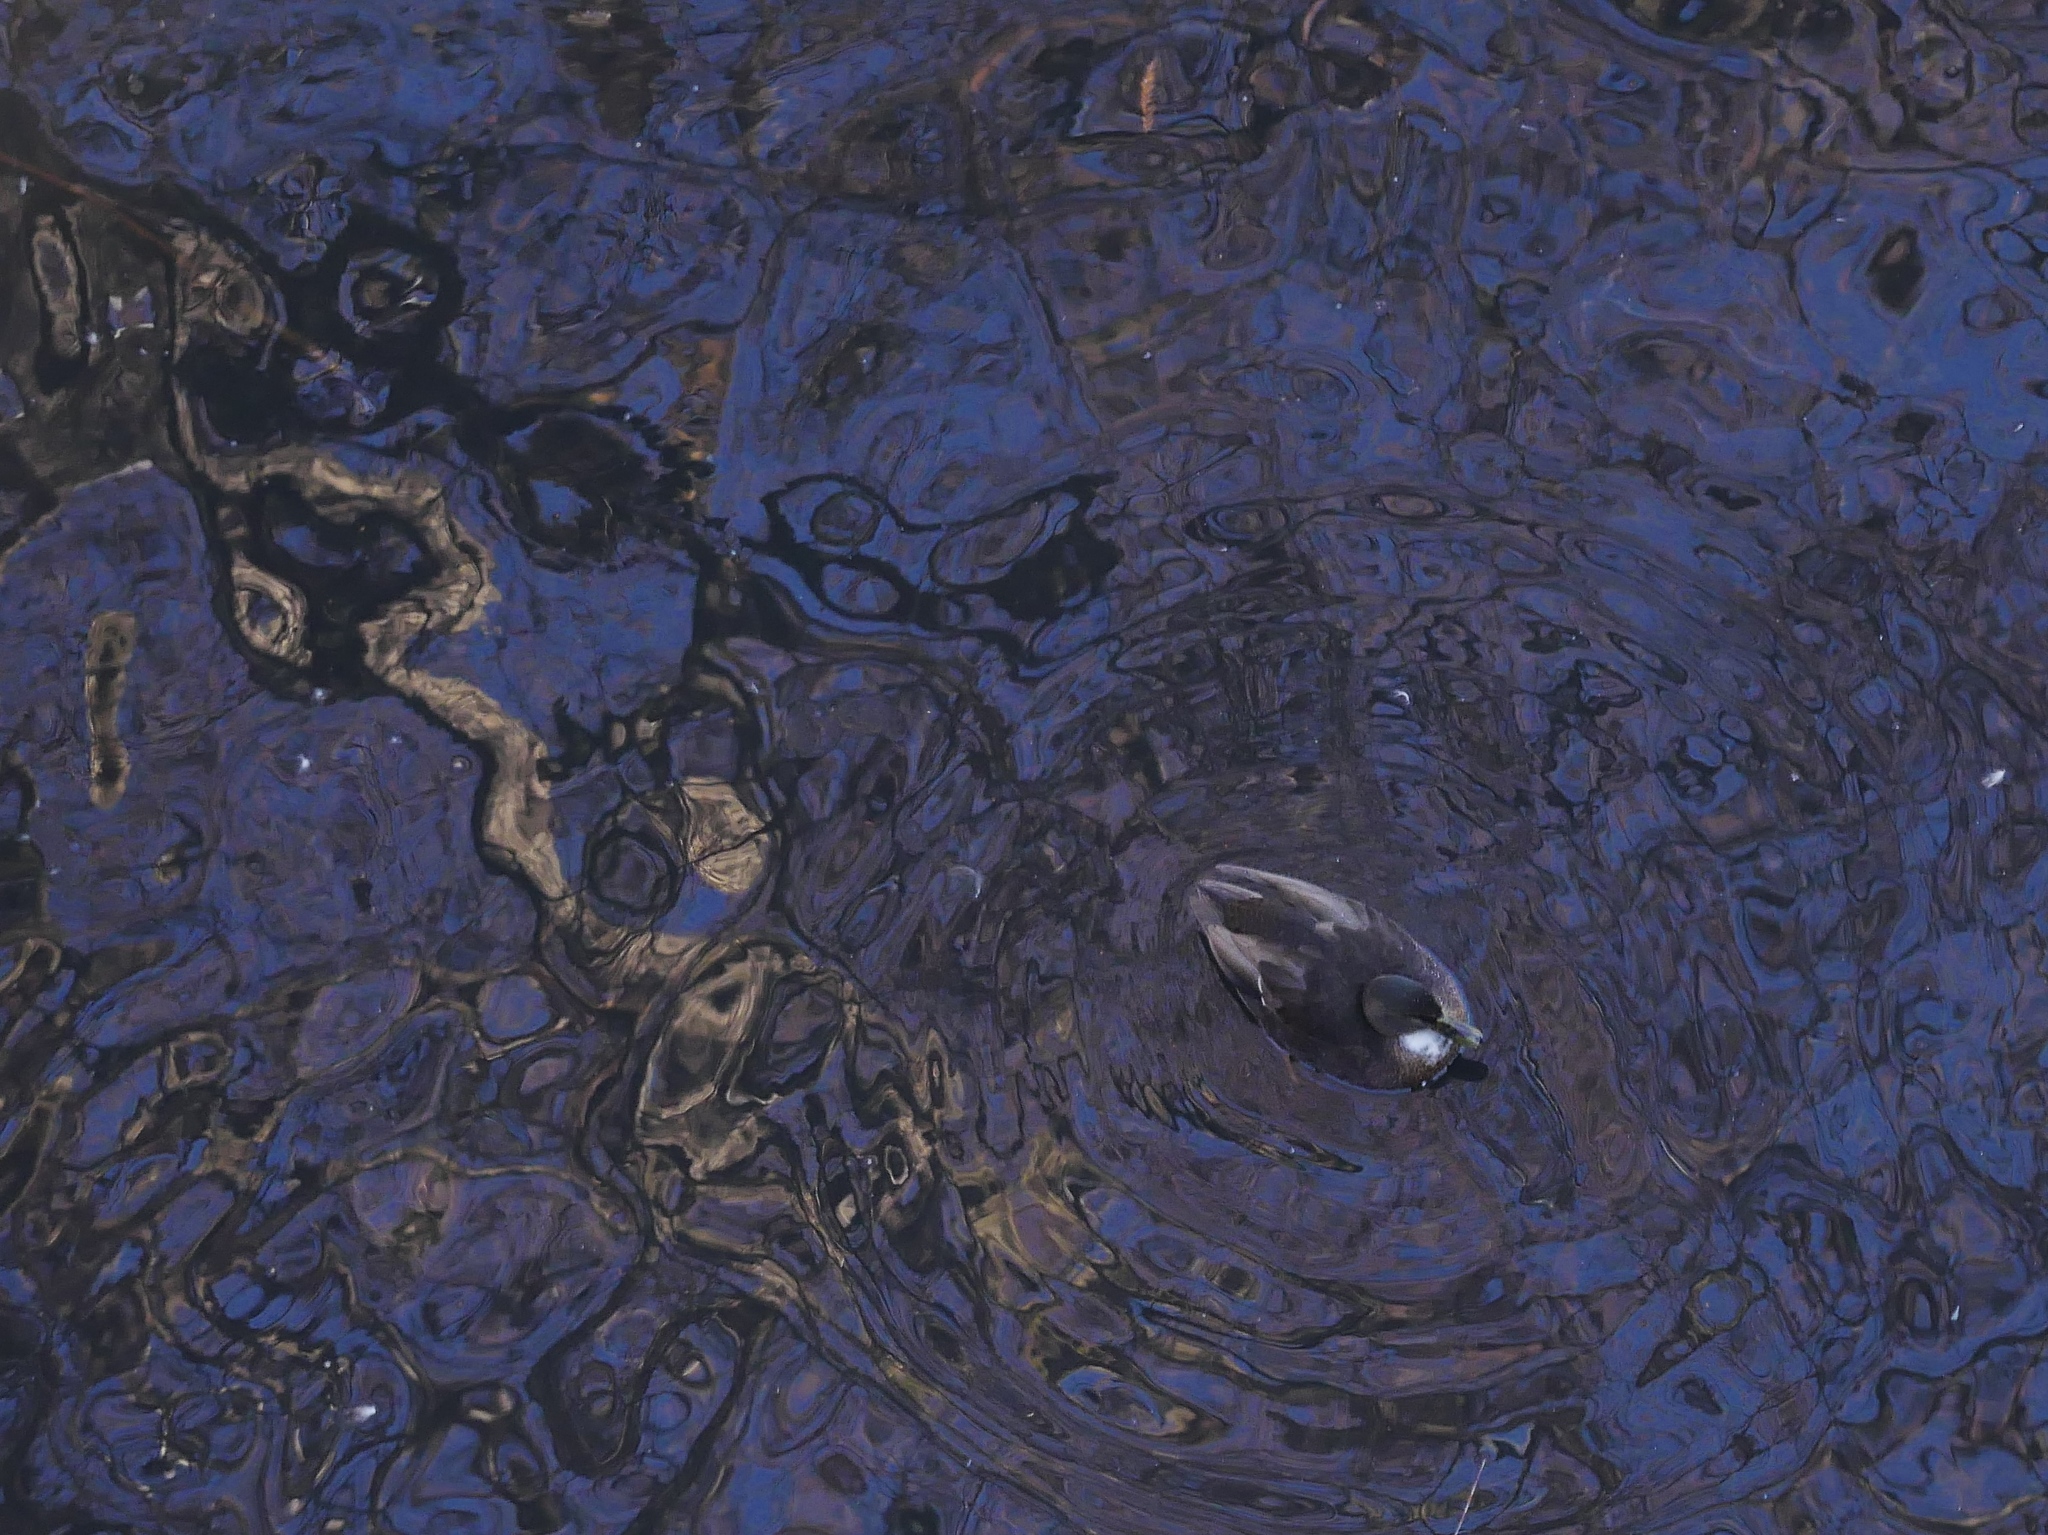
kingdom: Animalia
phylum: Chordata
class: Aves
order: Anseriformes
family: Anatidae
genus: Anas
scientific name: Anas platyrhynchos
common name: Mallard
